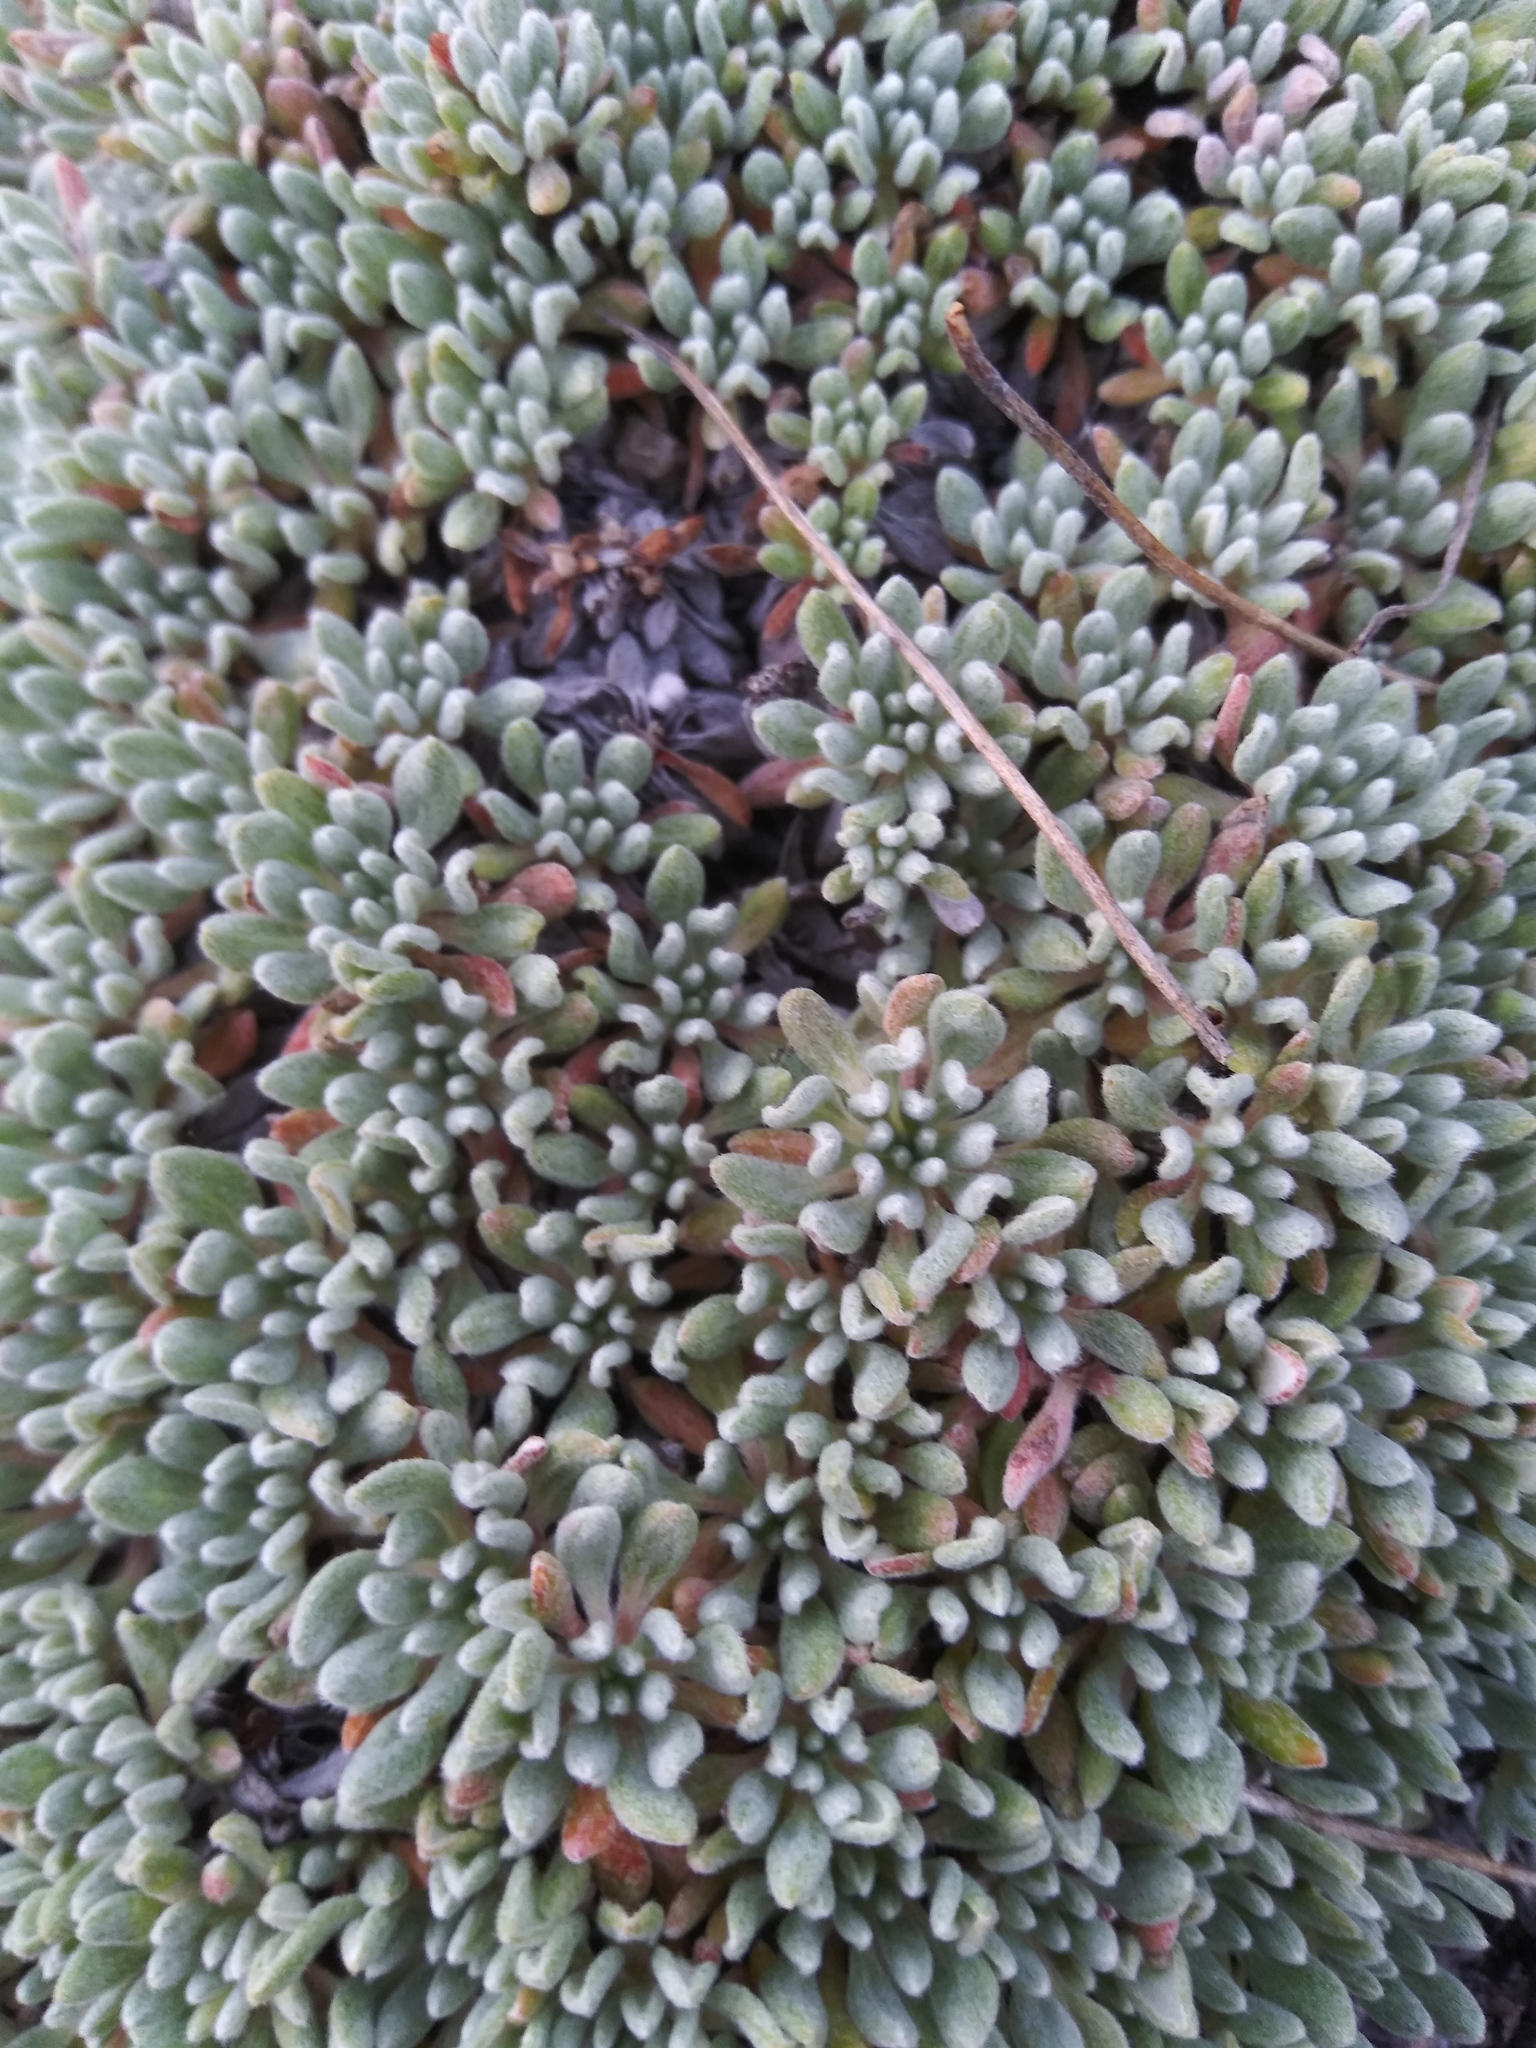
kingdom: Plantae
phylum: Tracheophyta
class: Magnoliopsida
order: Caryophyllales
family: Polygonaceae
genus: Eriogonum
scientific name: Eriogonum caespitosum
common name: Matted wild buckwheat
